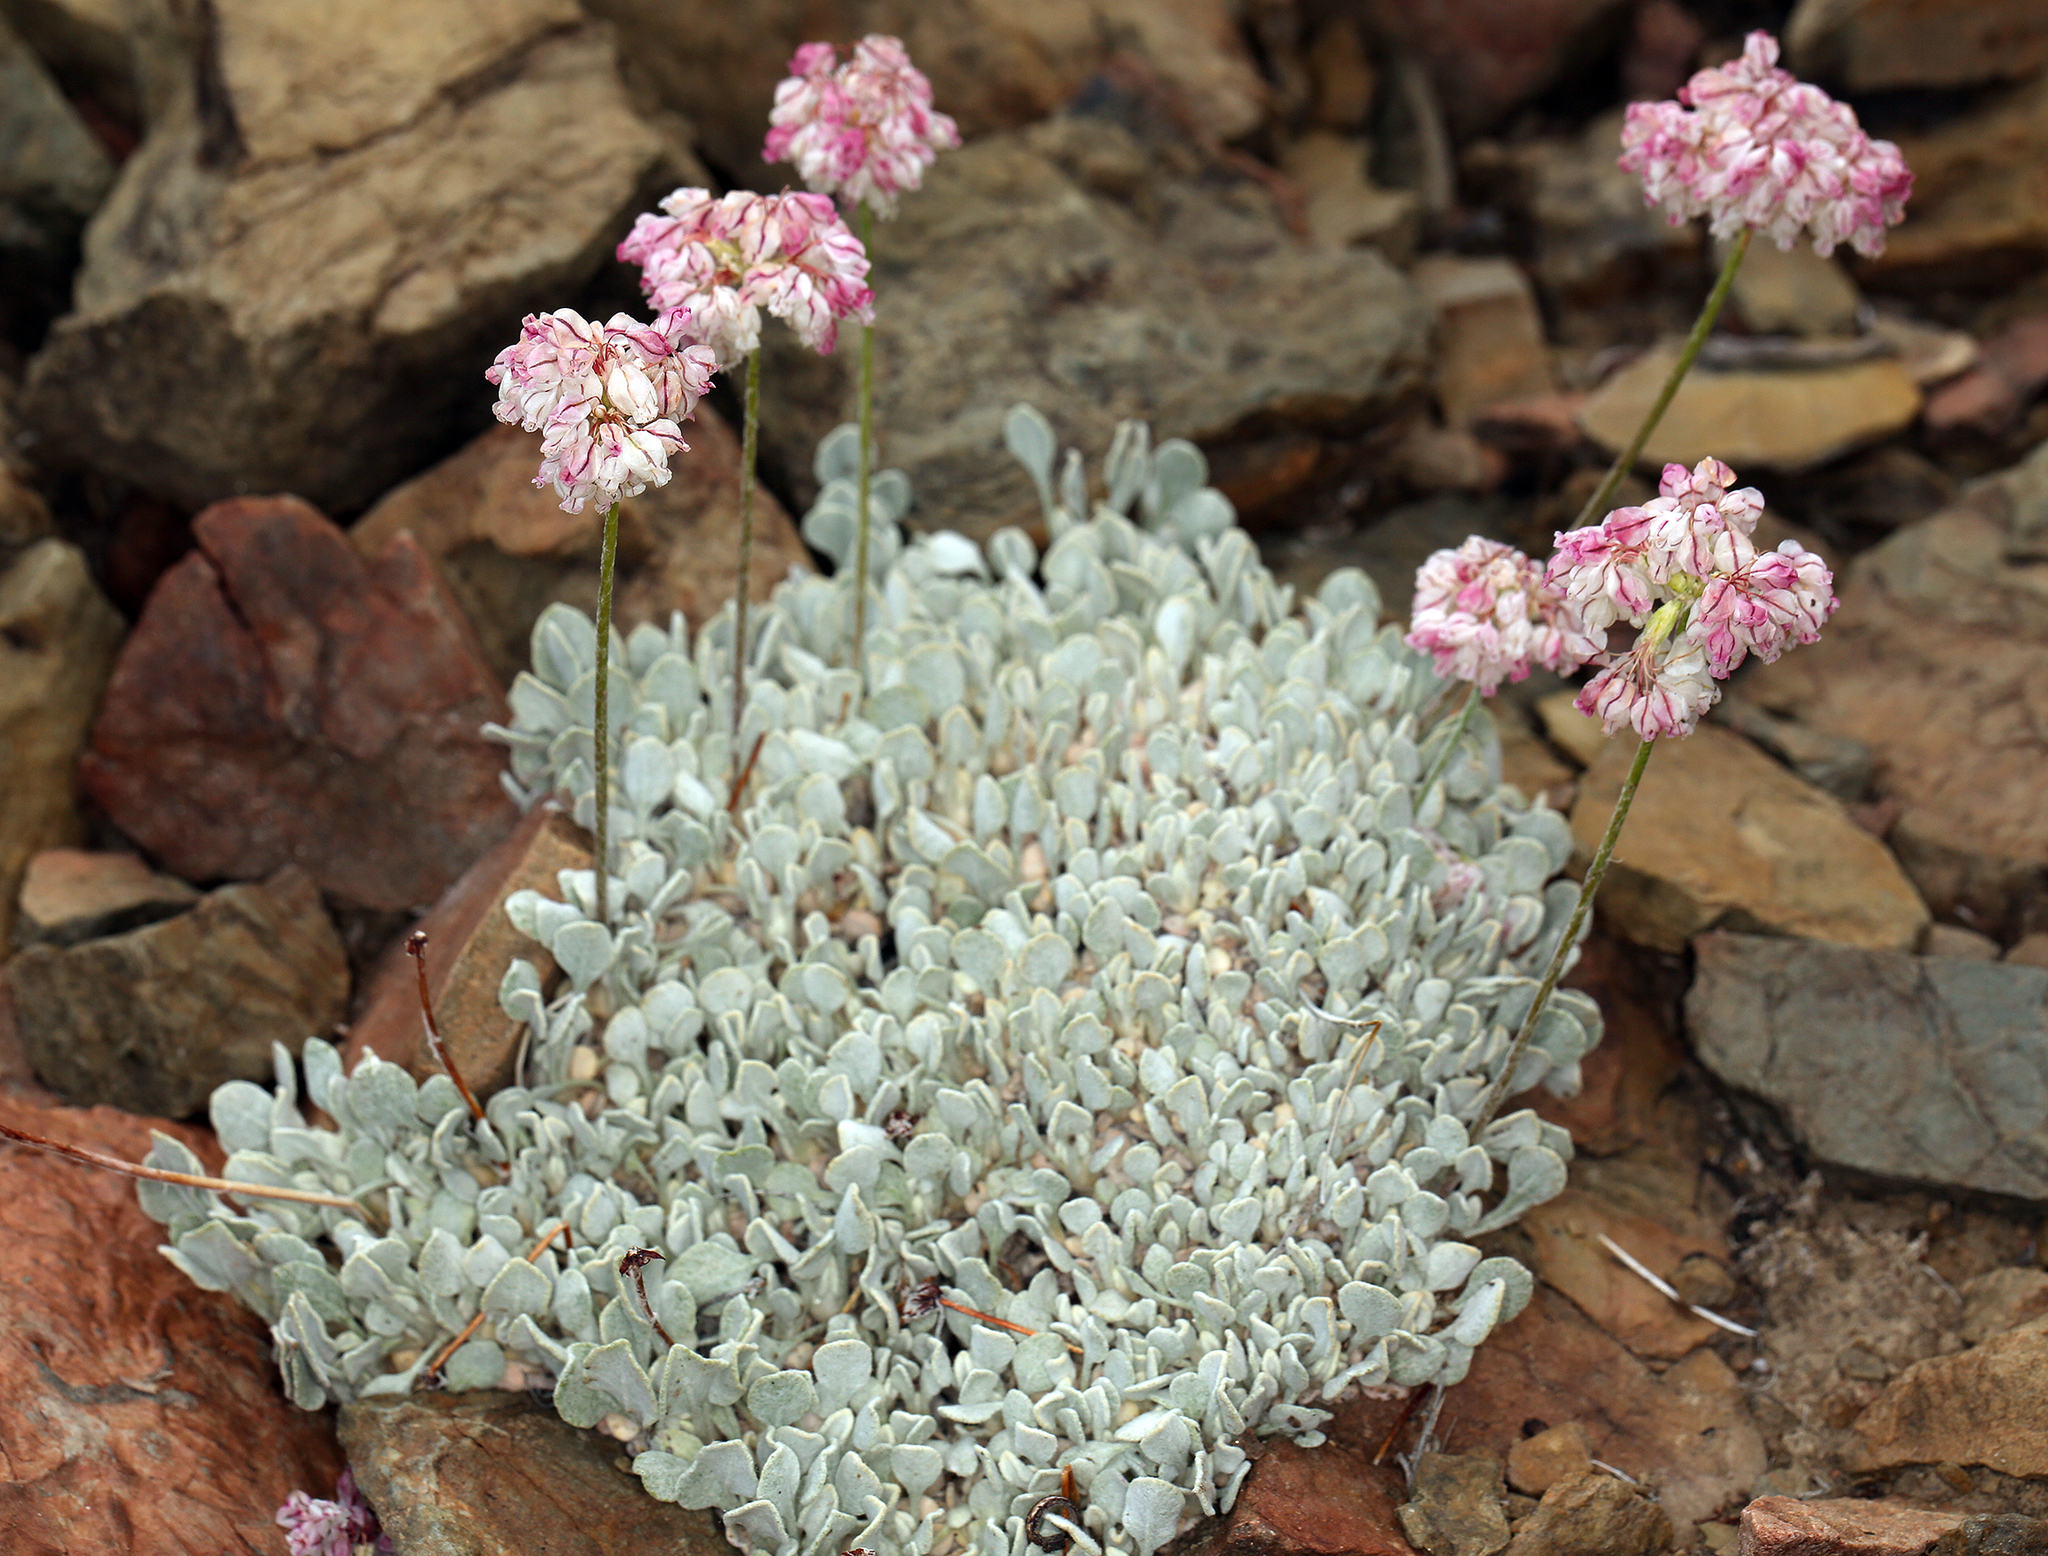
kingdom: Plantae
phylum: Tracheophyta
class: Magnoliopsida
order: Caryophyllales
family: Polygonaceae
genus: Eriogonum
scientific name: Eriogonum ovalifolium
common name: Cushion buckwheat
